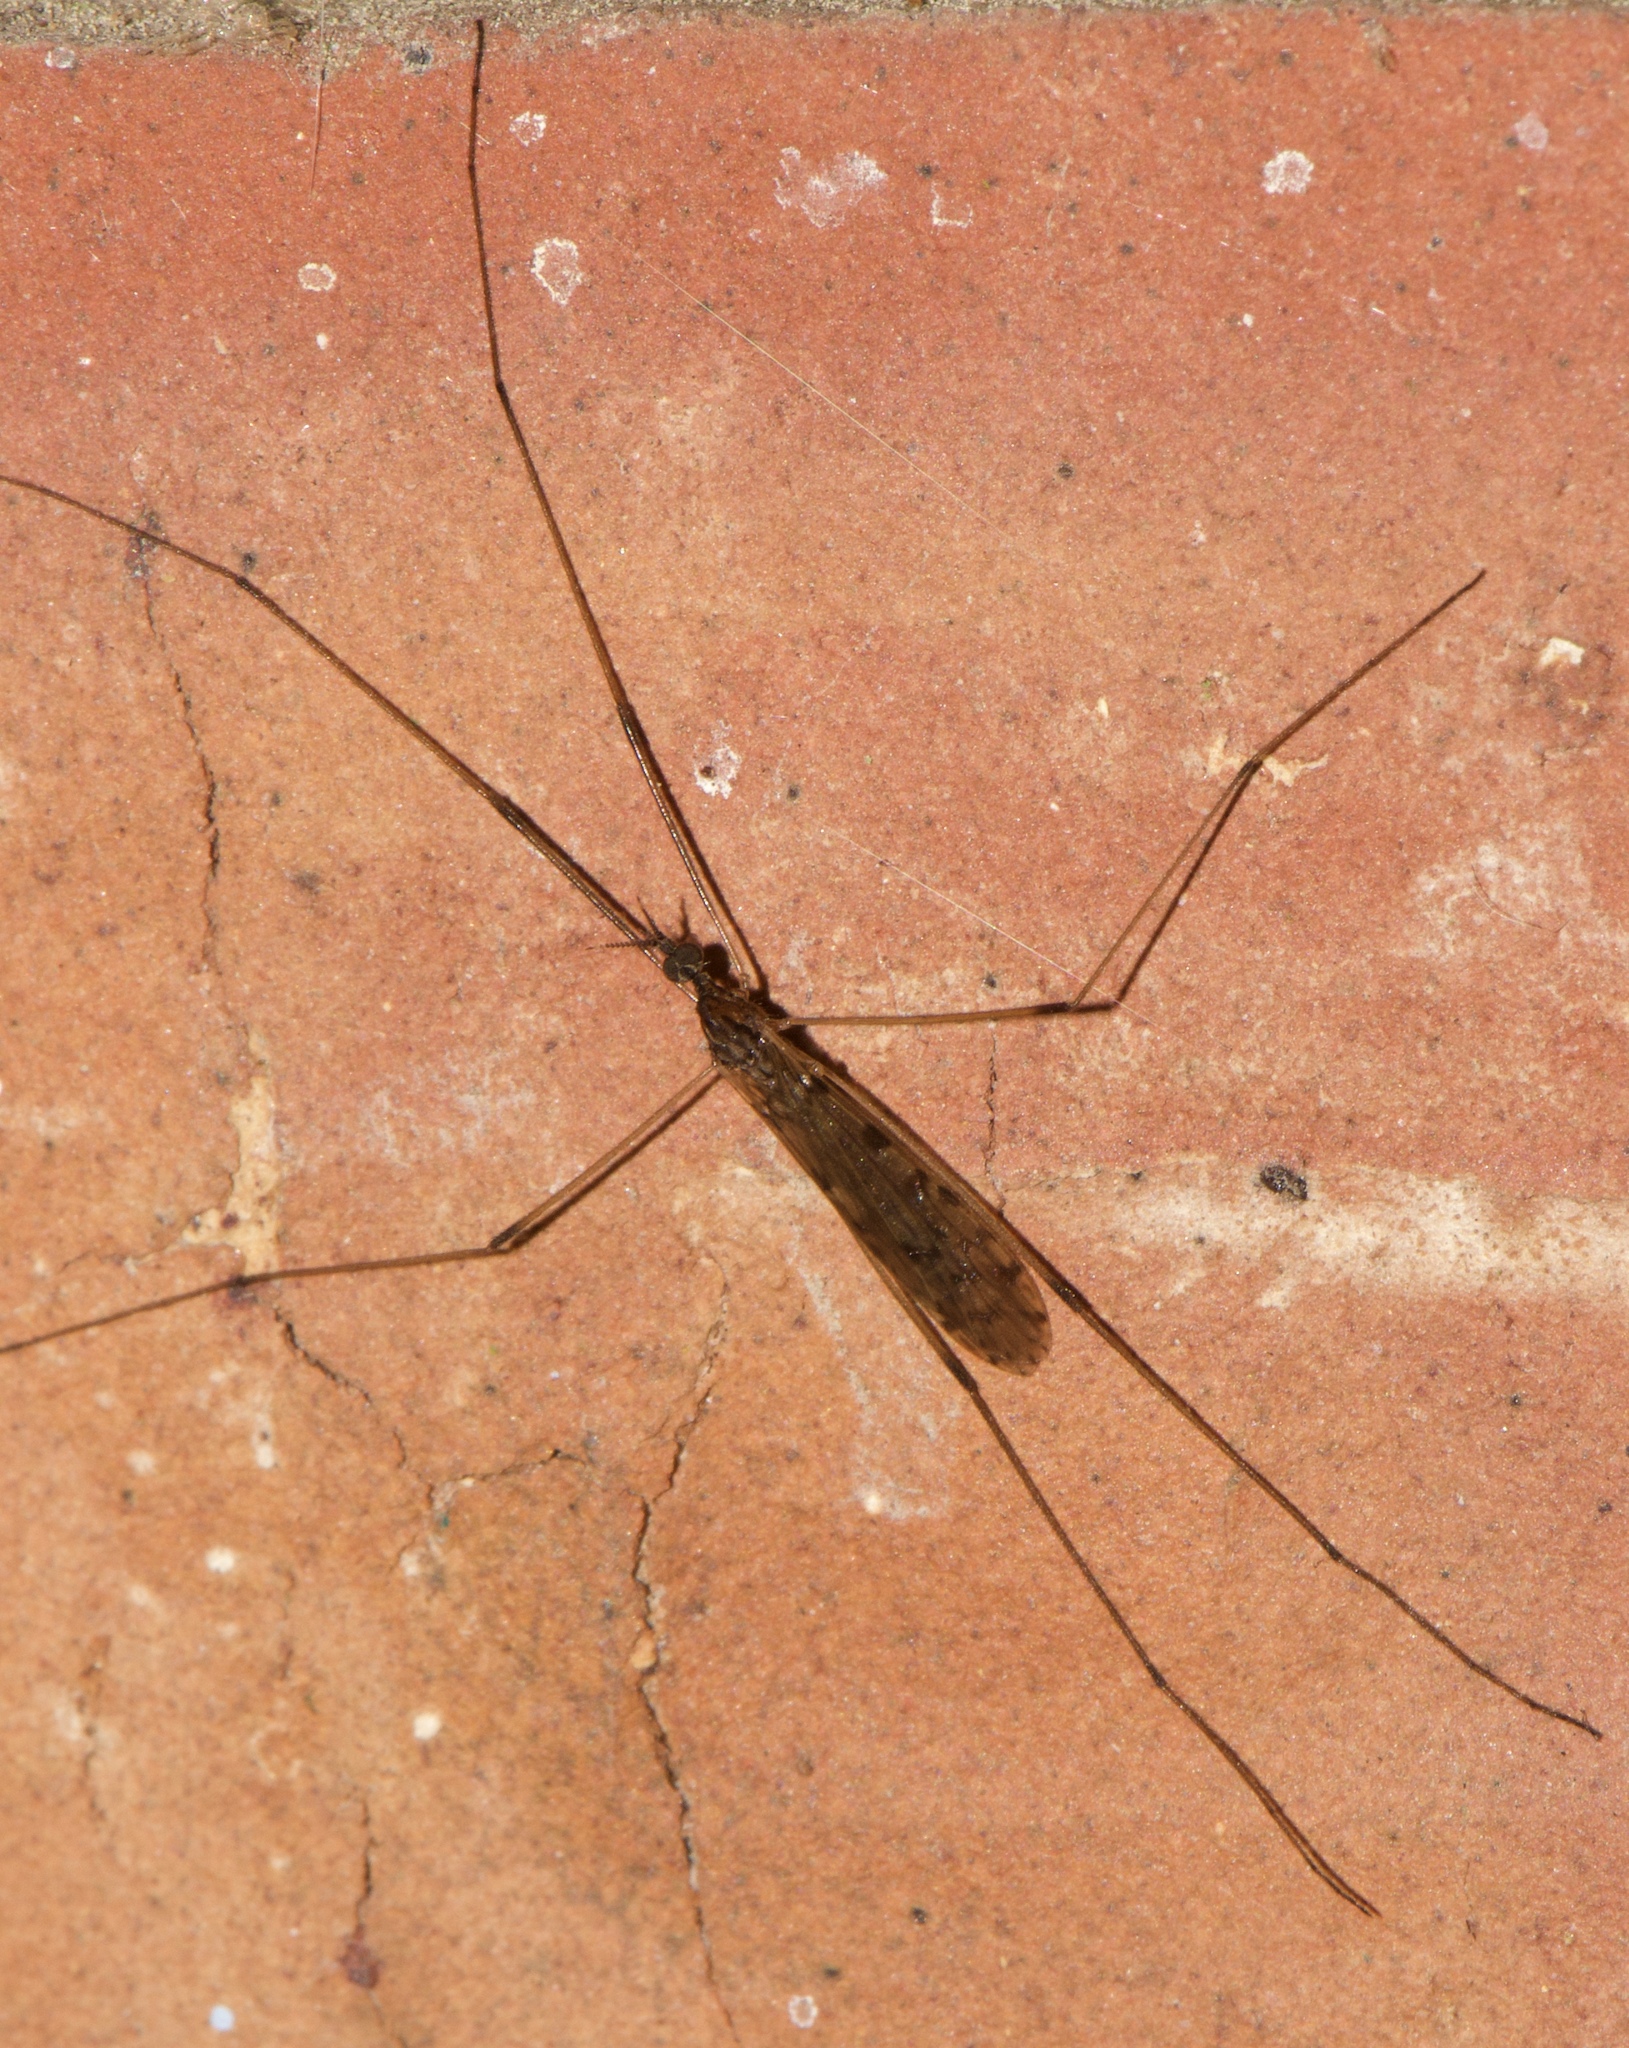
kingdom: Animalia
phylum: Arthropoda
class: Insecta
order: Diptera
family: Limoniidae
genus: Rhipidia
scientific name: Rhipidia domestica
